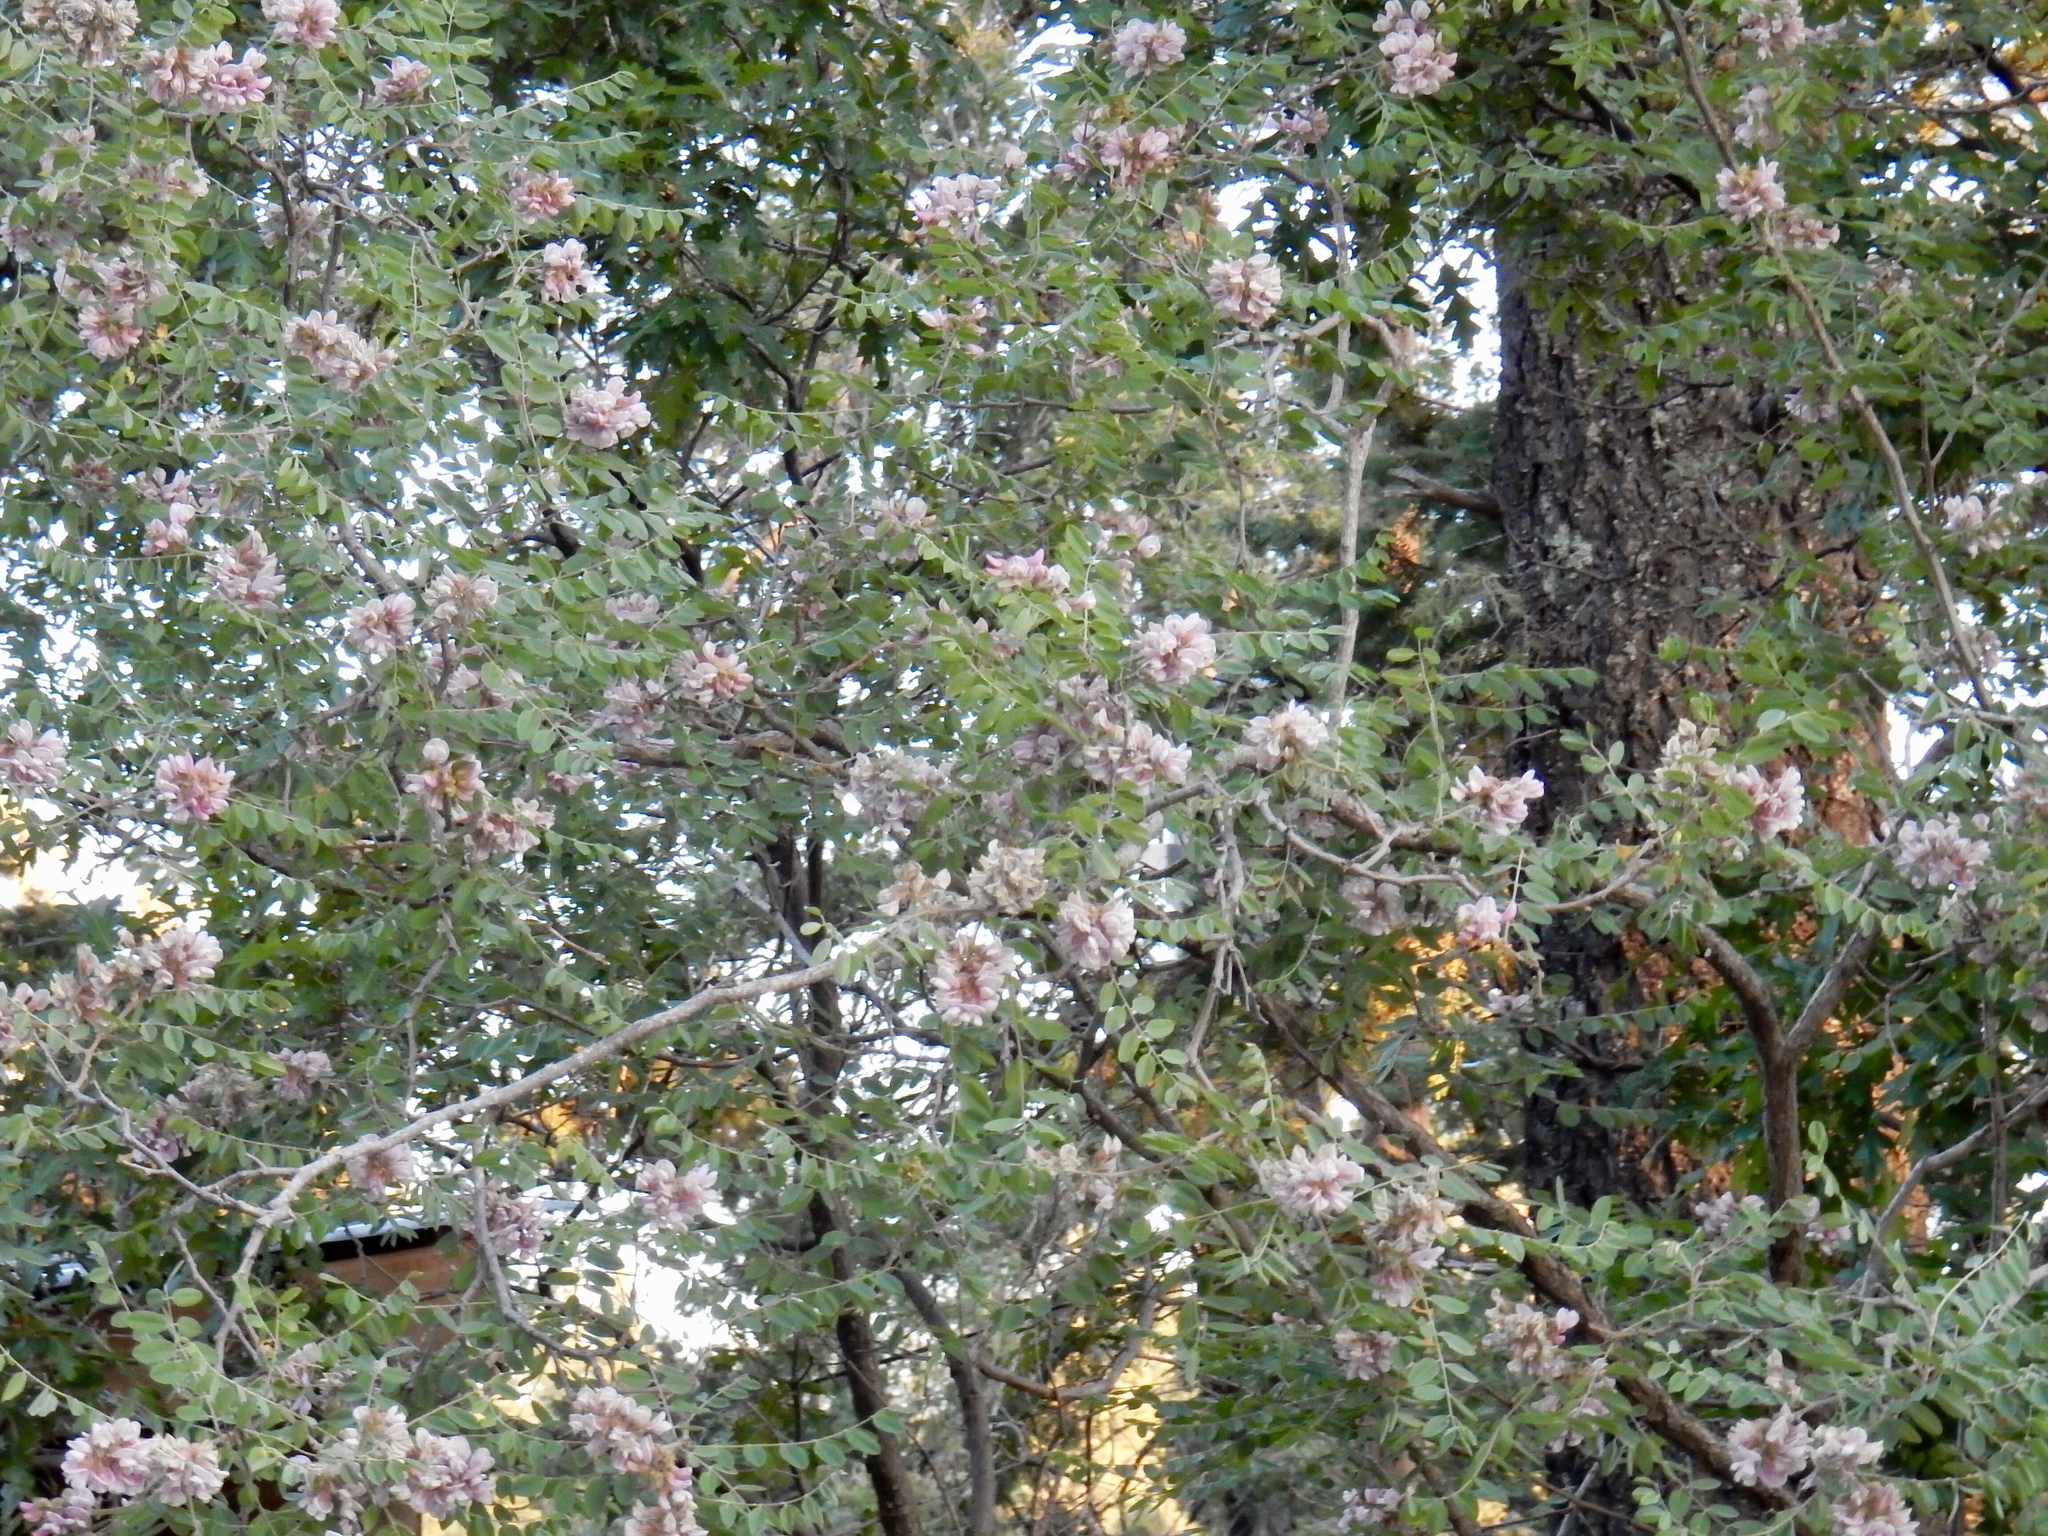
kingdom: Plantae
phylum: Tracheophyta
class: Magnoliopsida
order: Fabales
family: Fabaceae
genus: Robinia
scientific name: Robinia neomexicana
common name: New mexico locust
